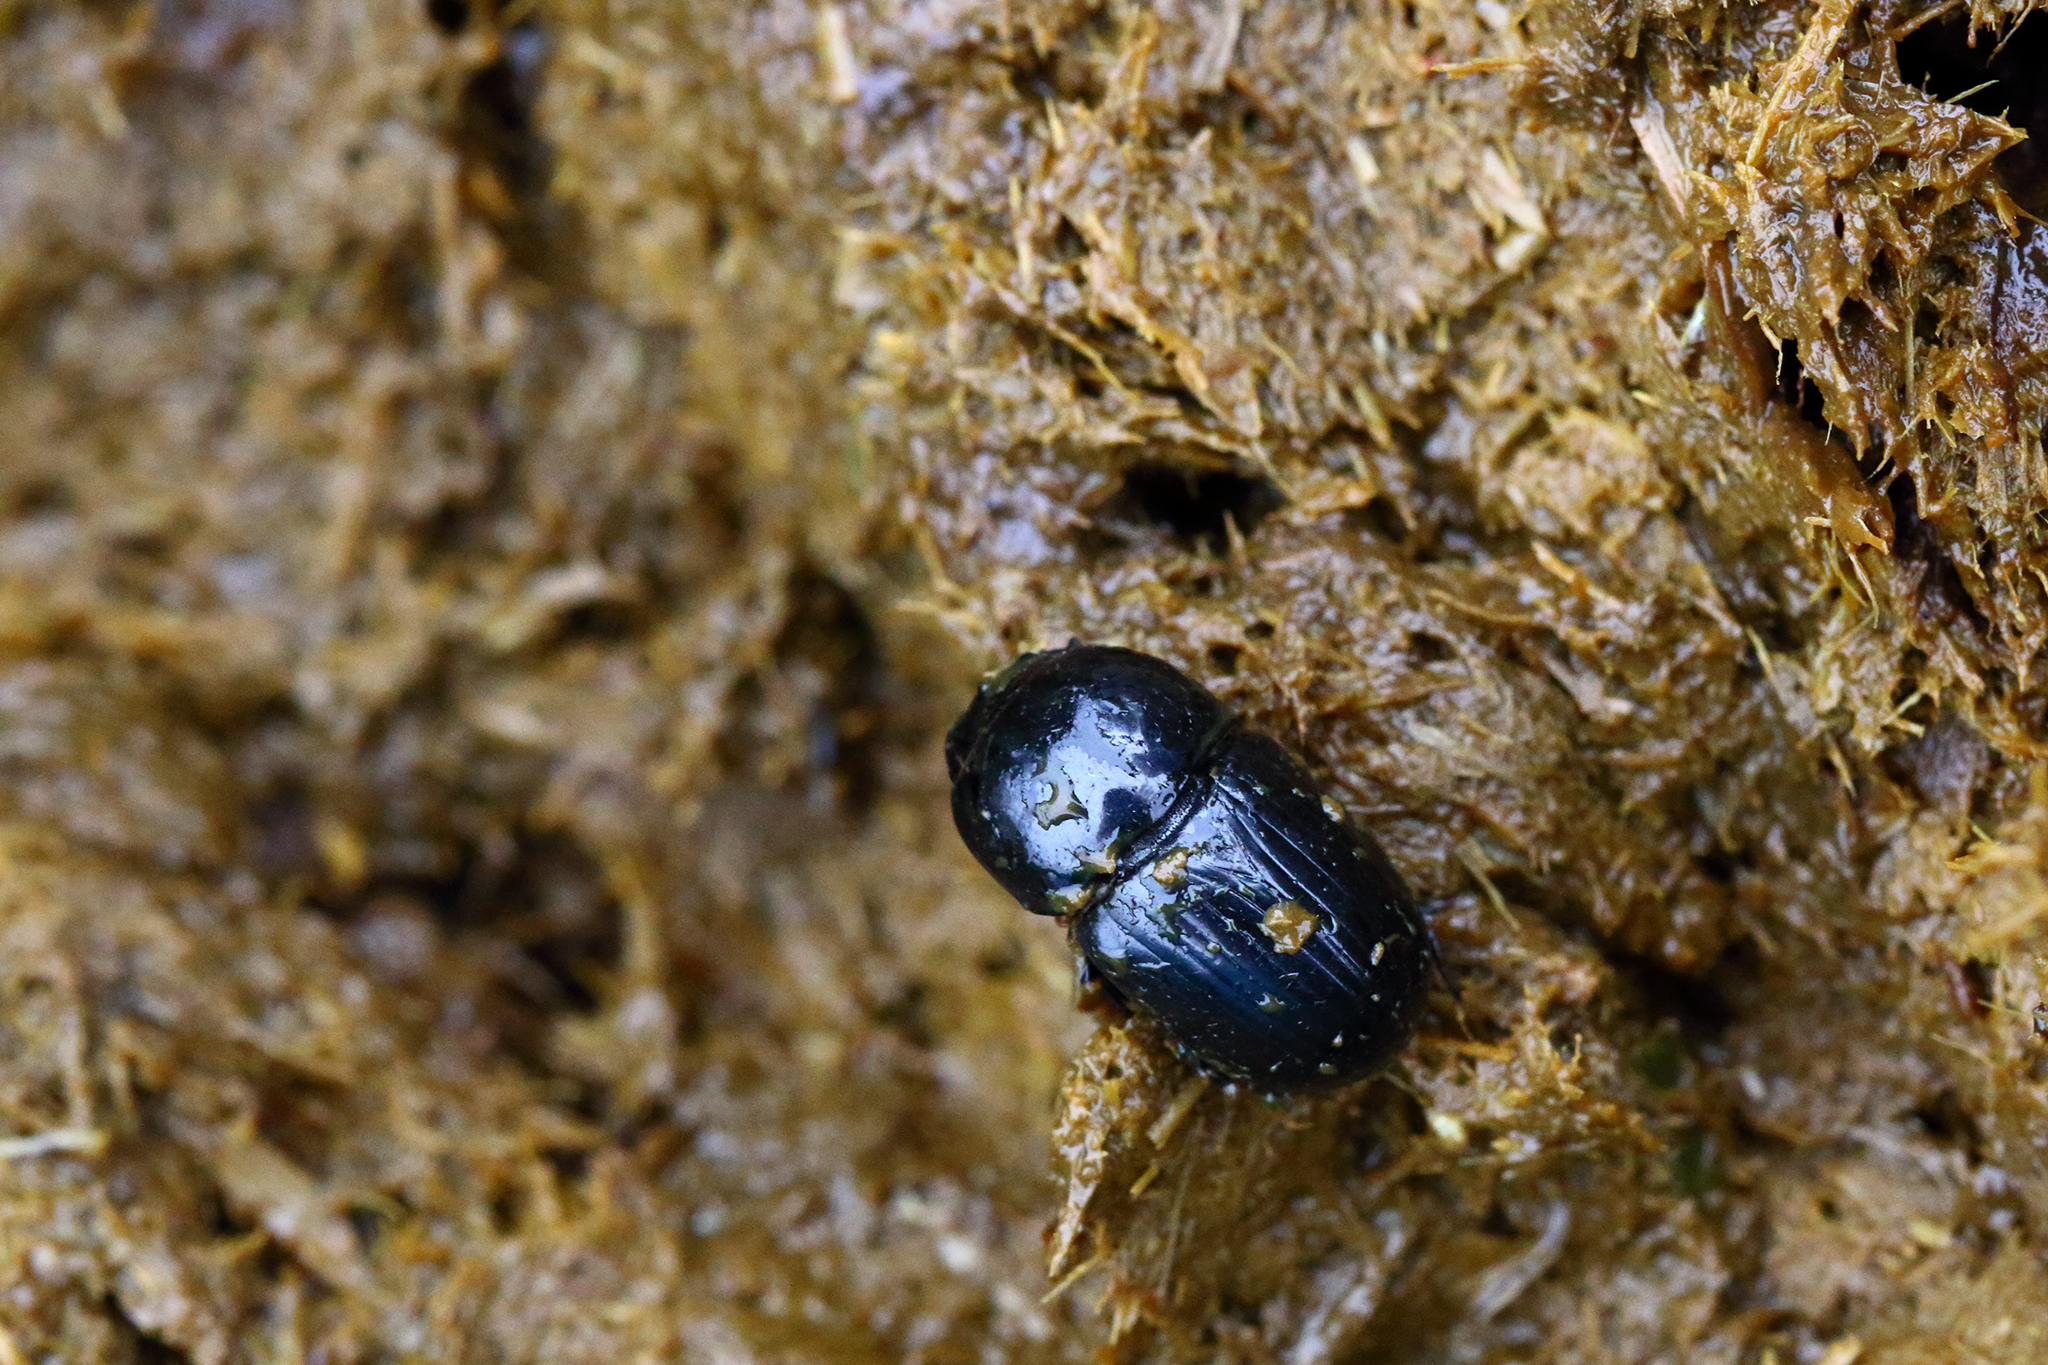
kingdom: Animalia
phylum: Arthropoda
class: Insecta
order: Coleoptera
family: Scarabaeidae
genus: Teuchestes
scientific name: Teuchestes fossor
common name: Digger small dung beetle
